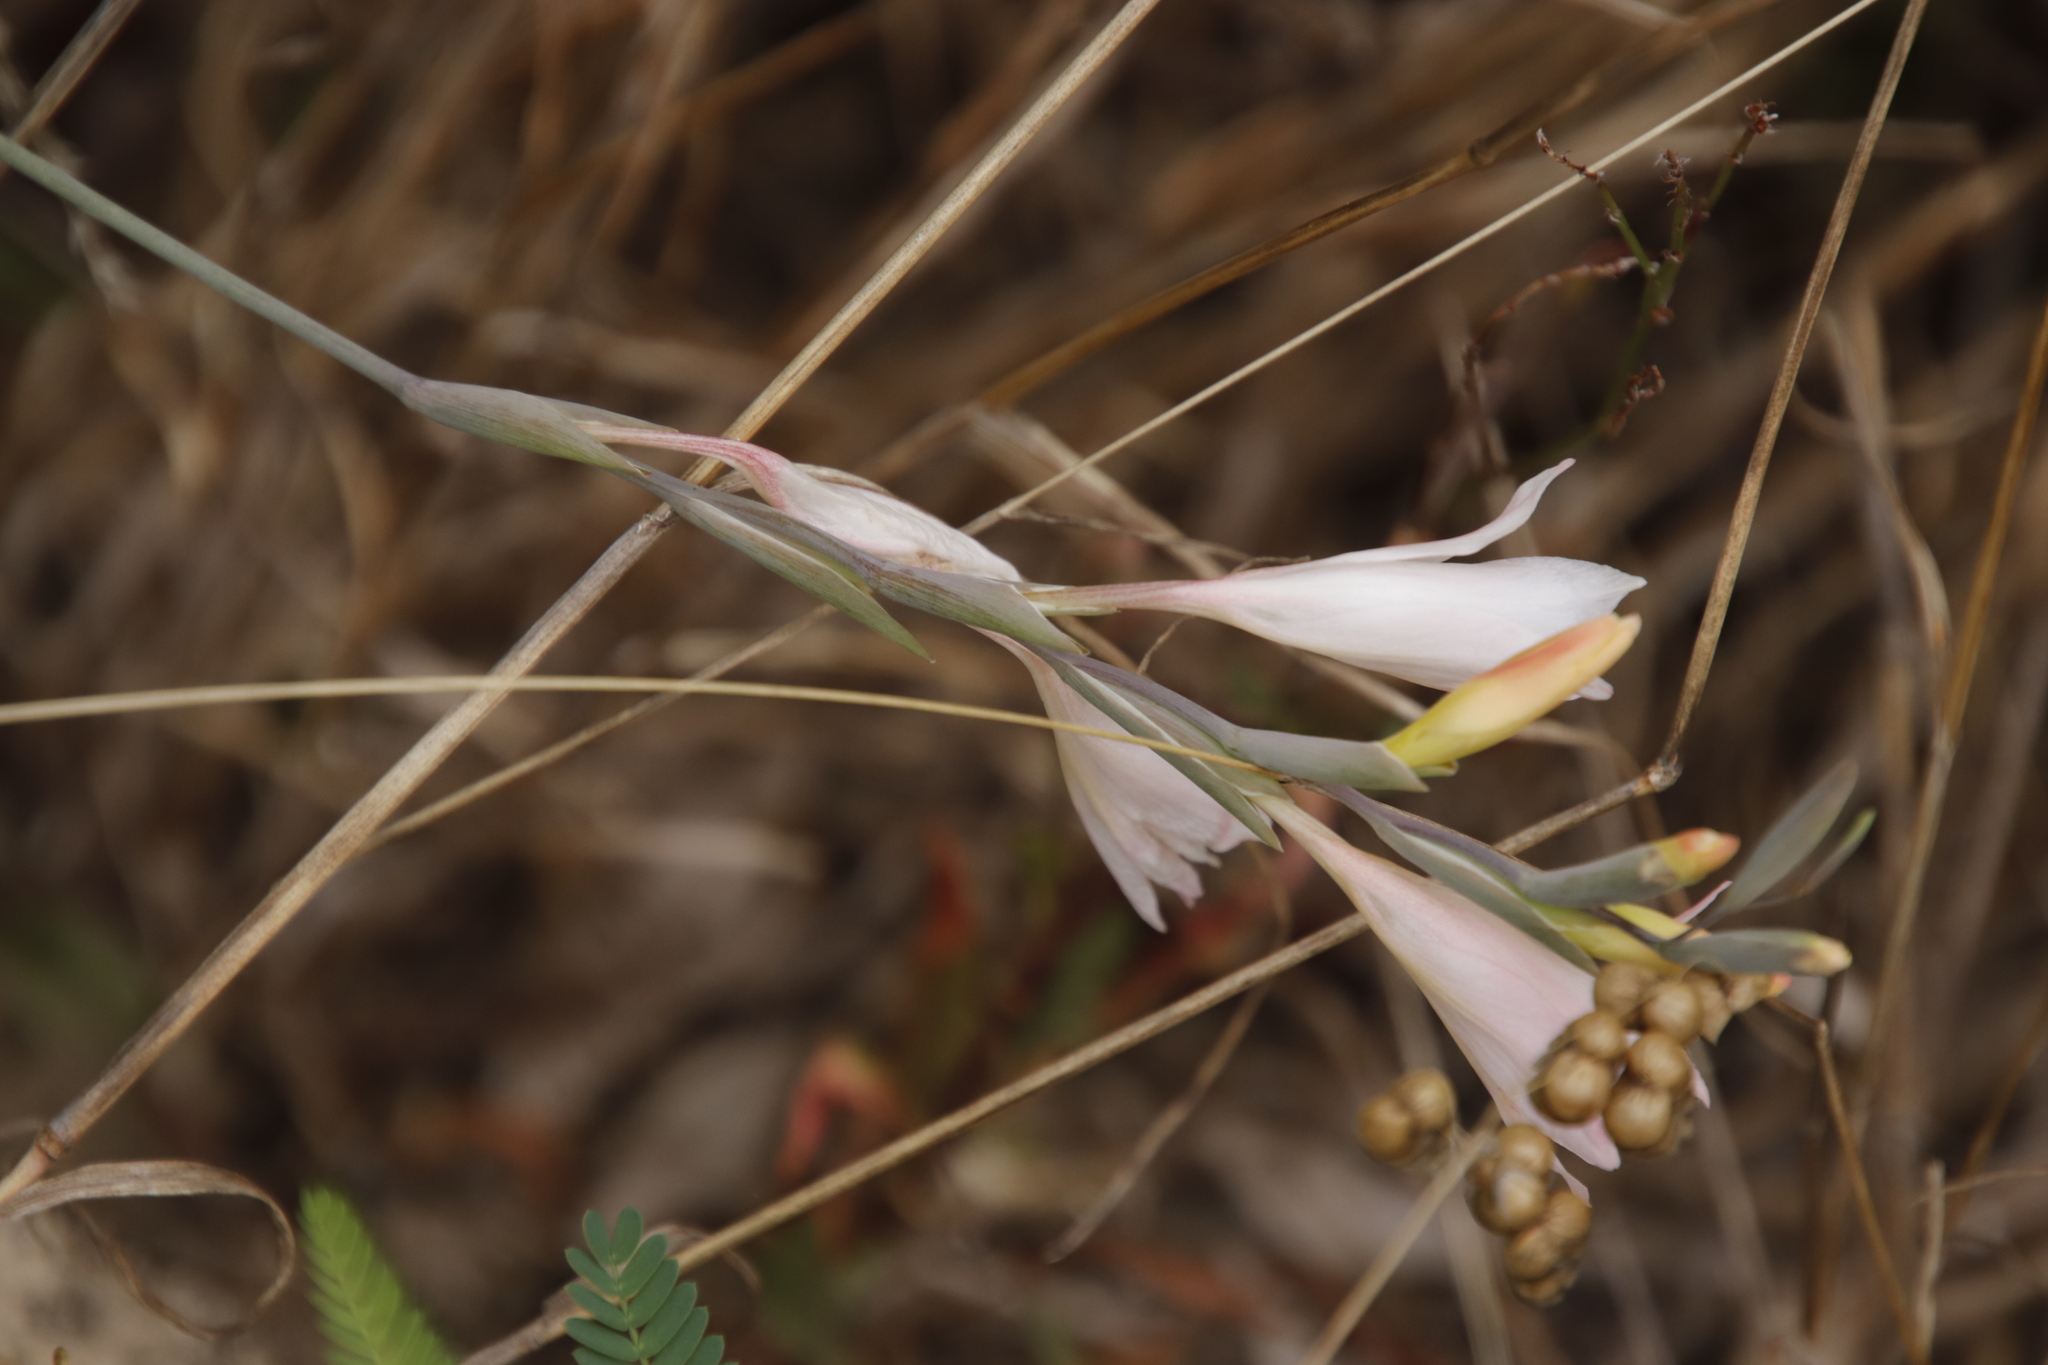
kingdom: Plantae
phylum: Tracheophyta
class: Liliopsida
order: Asparagales
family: Iridaceae
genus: Gladiolus
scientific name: Gladiolus monticola
